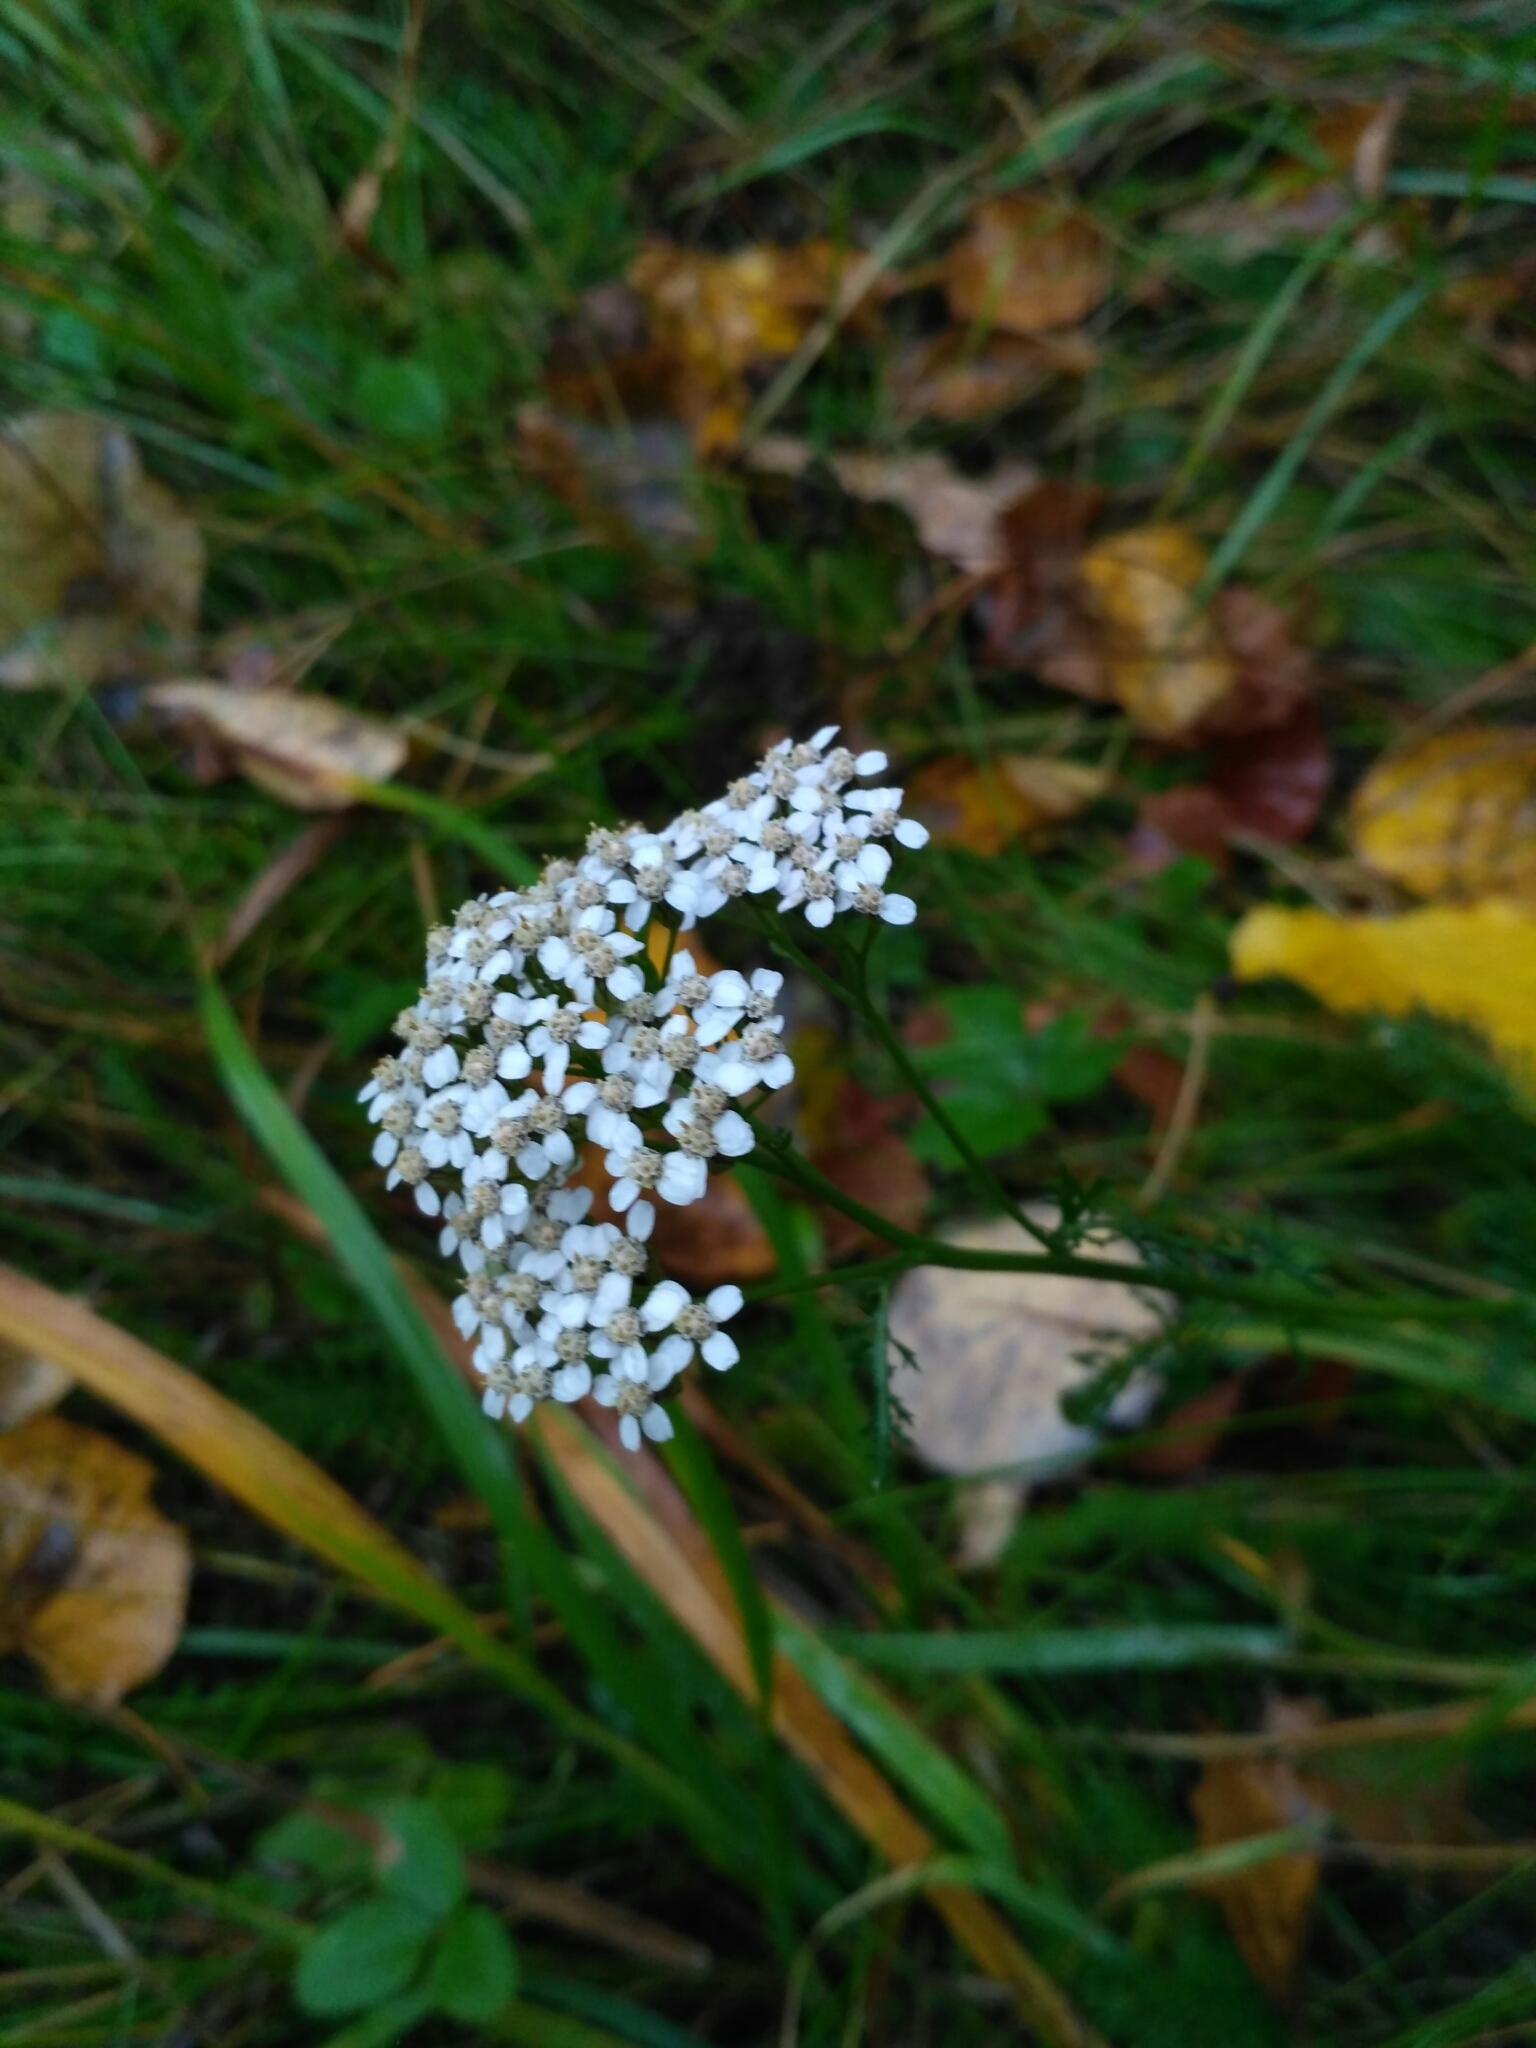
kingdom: Plantae
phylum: Tracheophyta
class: Magnoliopsida
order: Asterales
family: Asteraceae
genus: Achillea
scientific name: Achillea millefolium
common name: Yarrow
